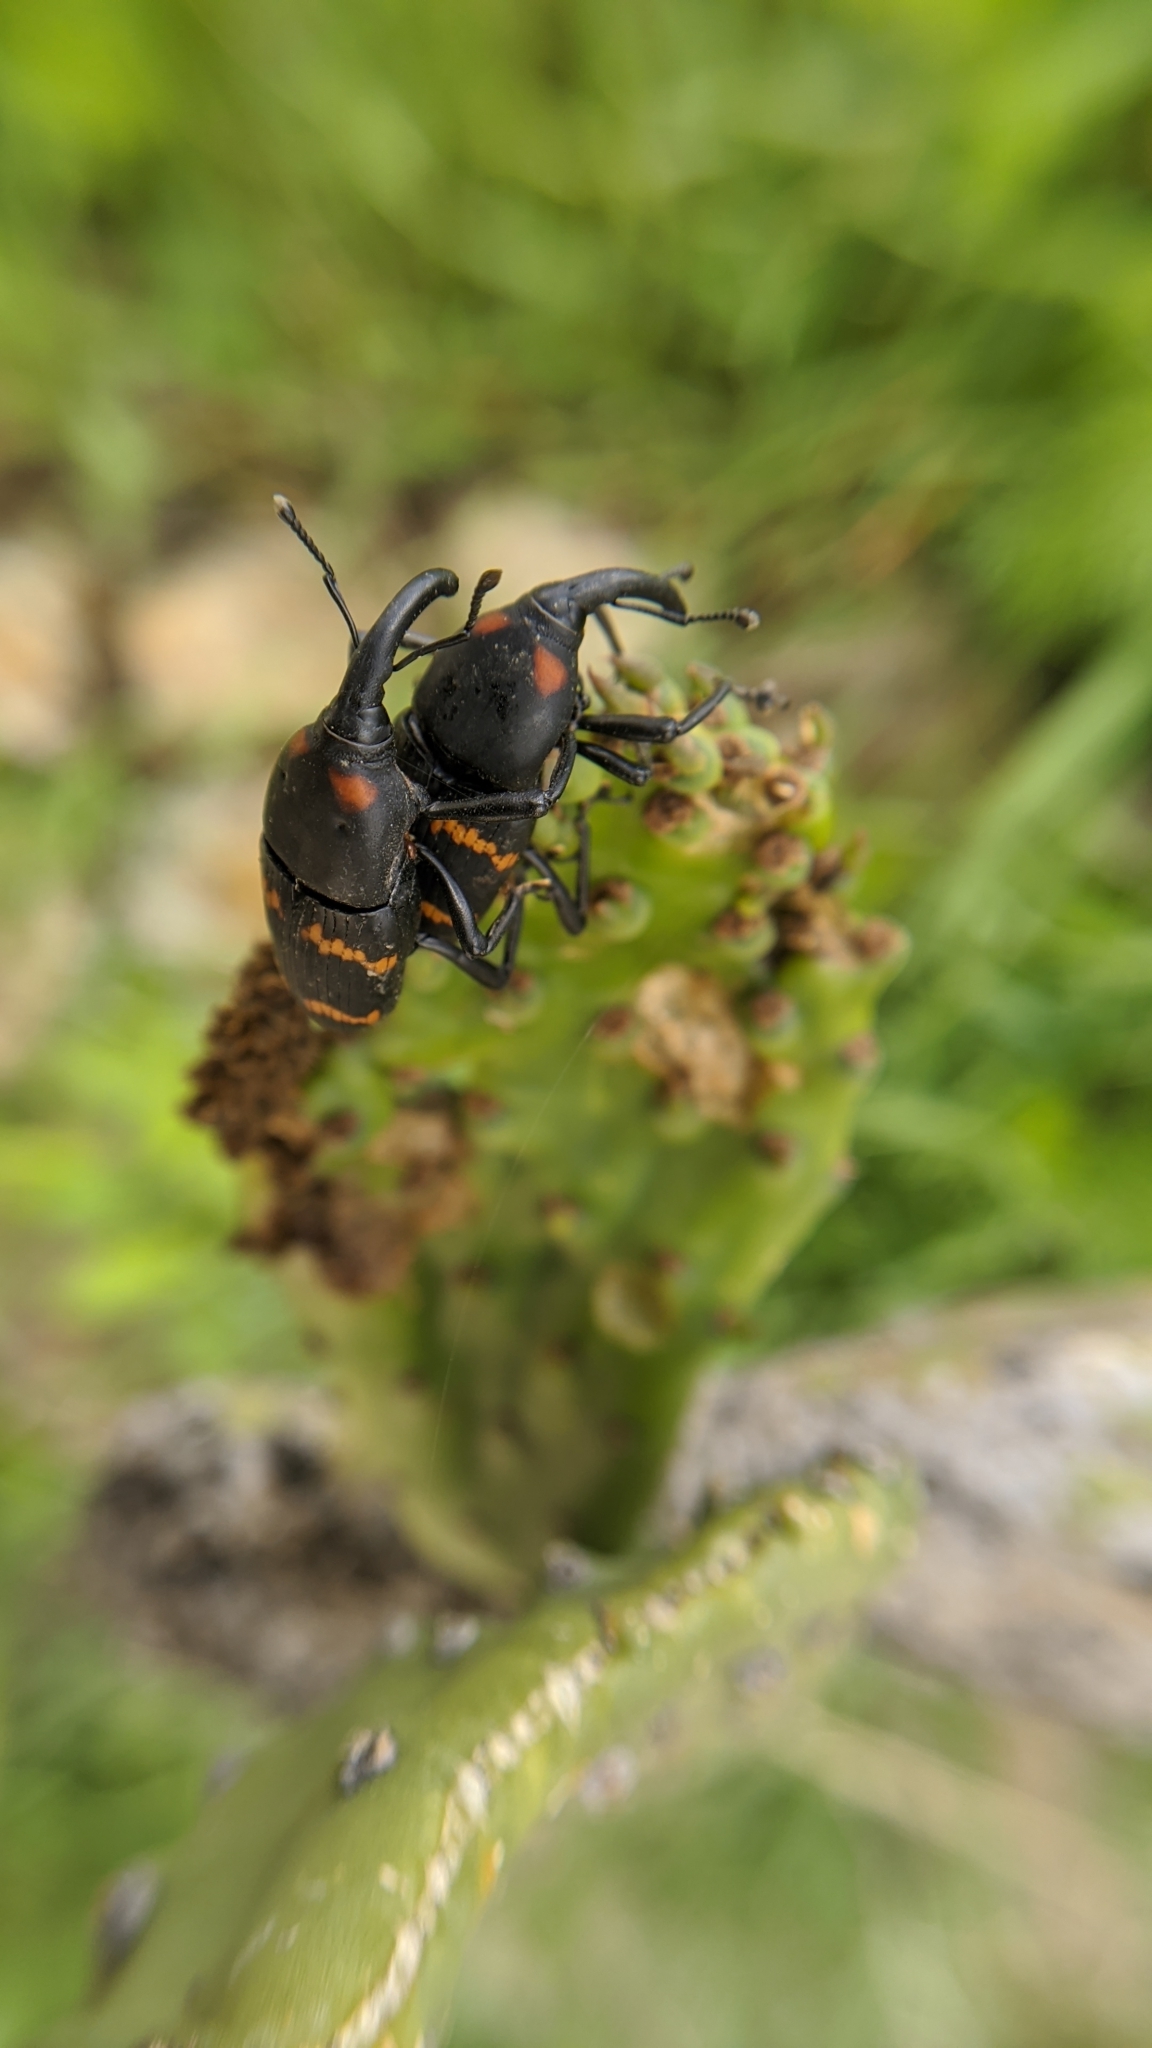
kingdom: Animalia
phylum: Arthropoda
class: Insecta
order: Coleoptera
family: Dryophthoridae
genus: Cactophagus
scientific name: Cactophagus spinolae
